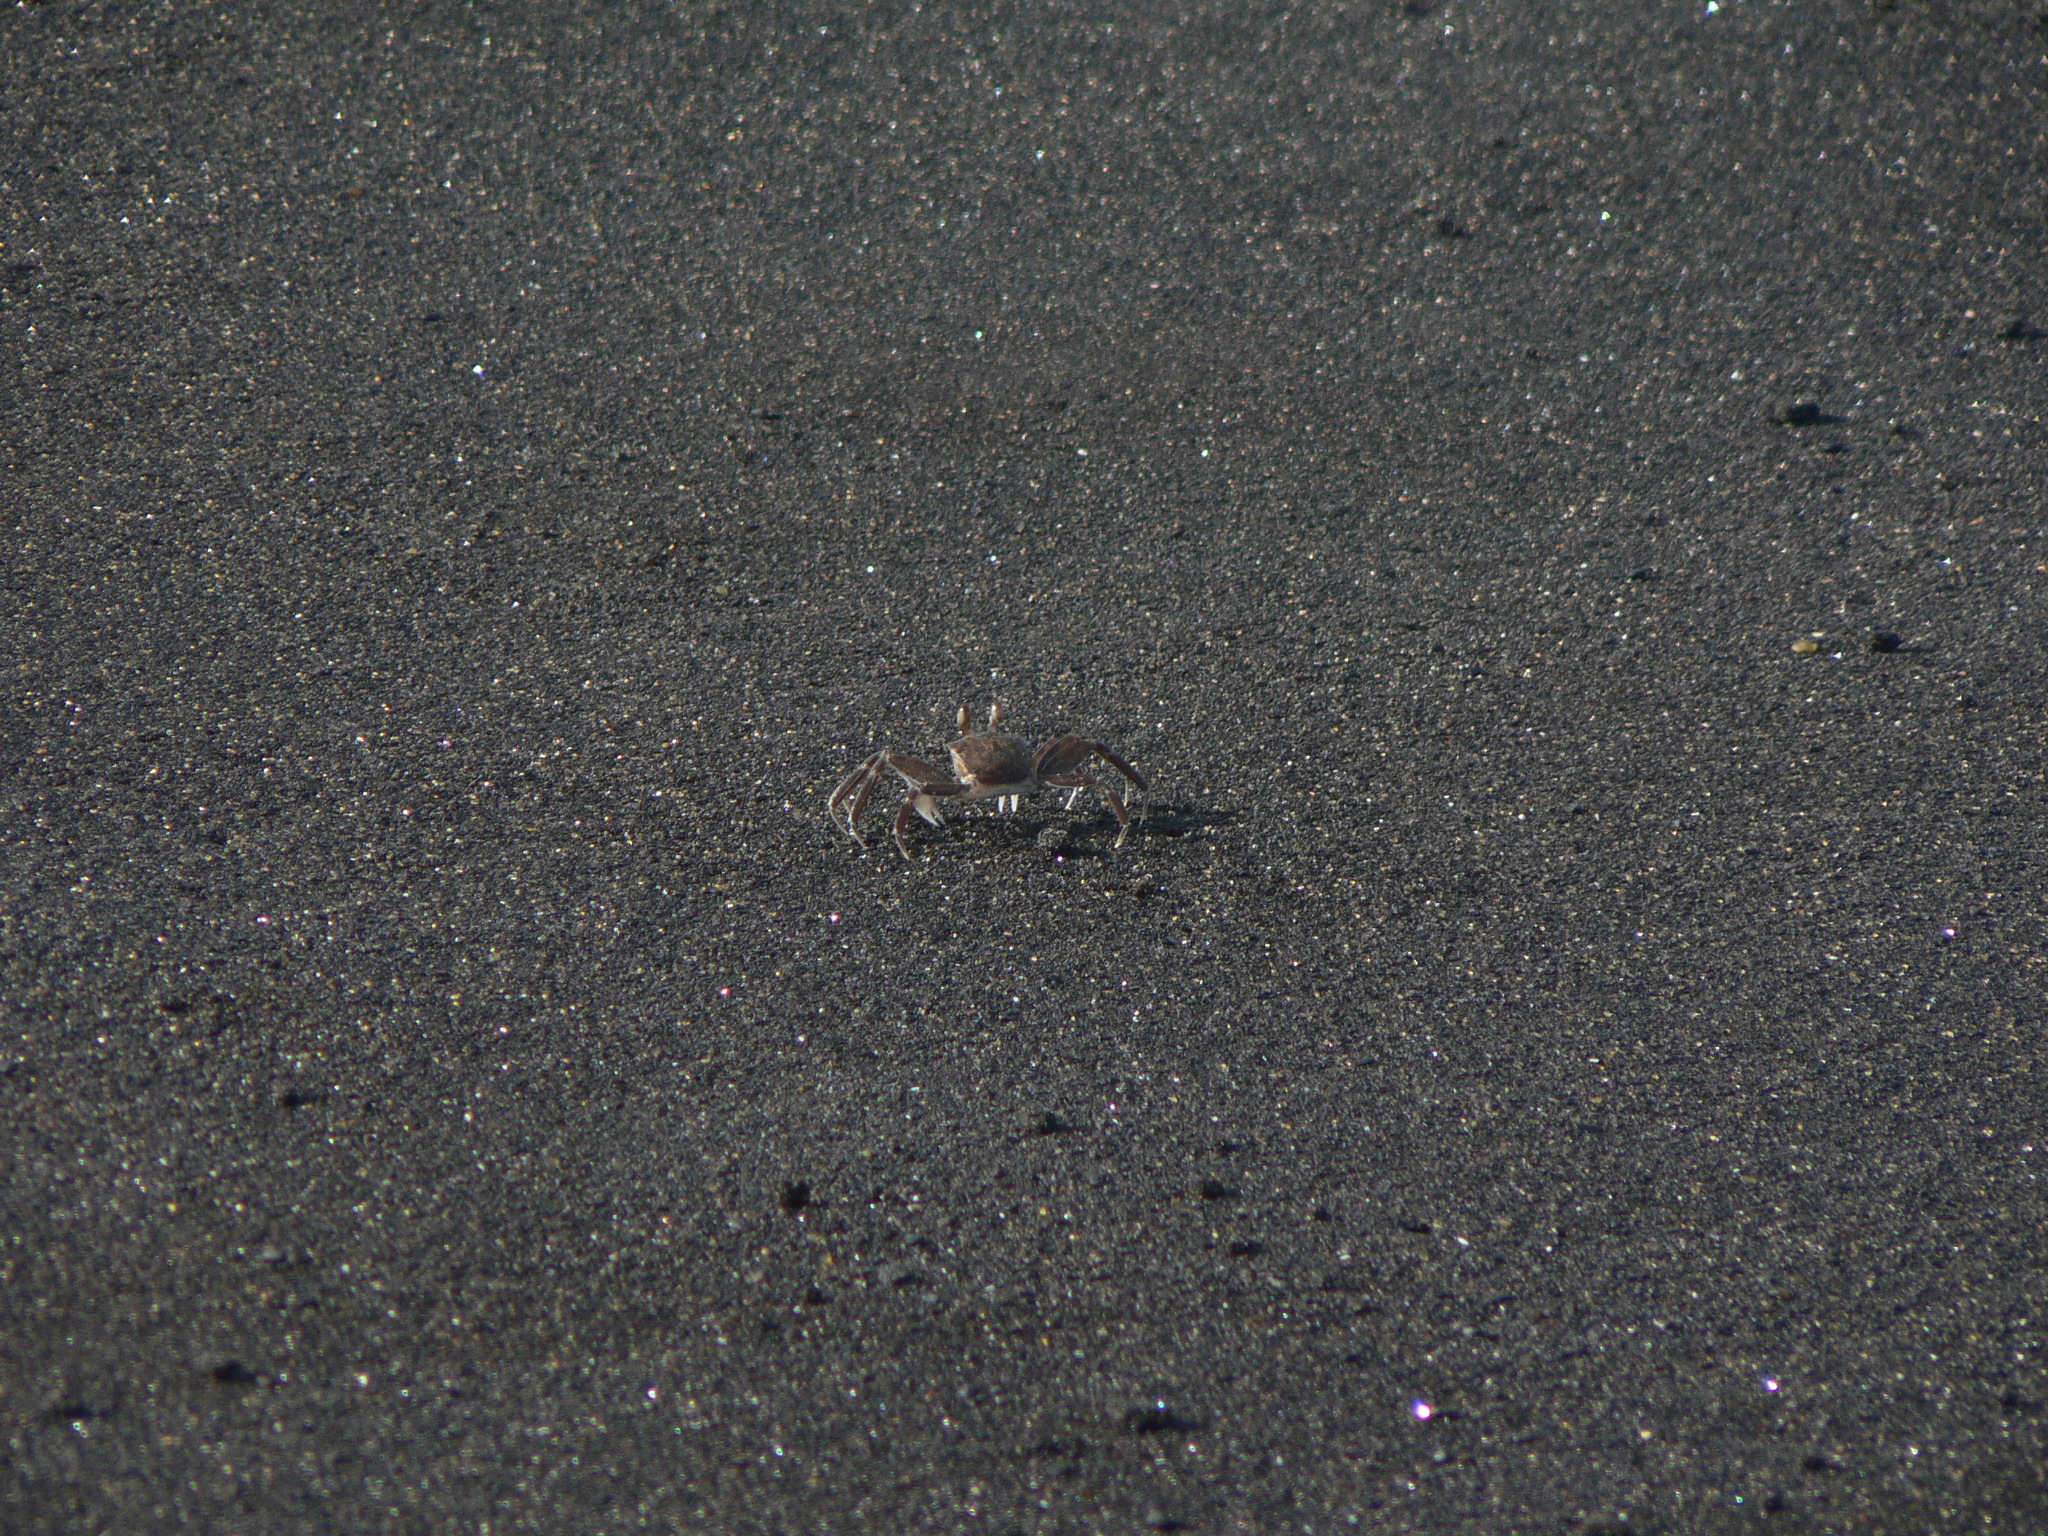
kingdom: Animalia
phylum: Arthropoda
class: Malacostraca
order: Decapoda
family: Ocypodidae
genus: Ocypode
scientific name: Ocypode africana
